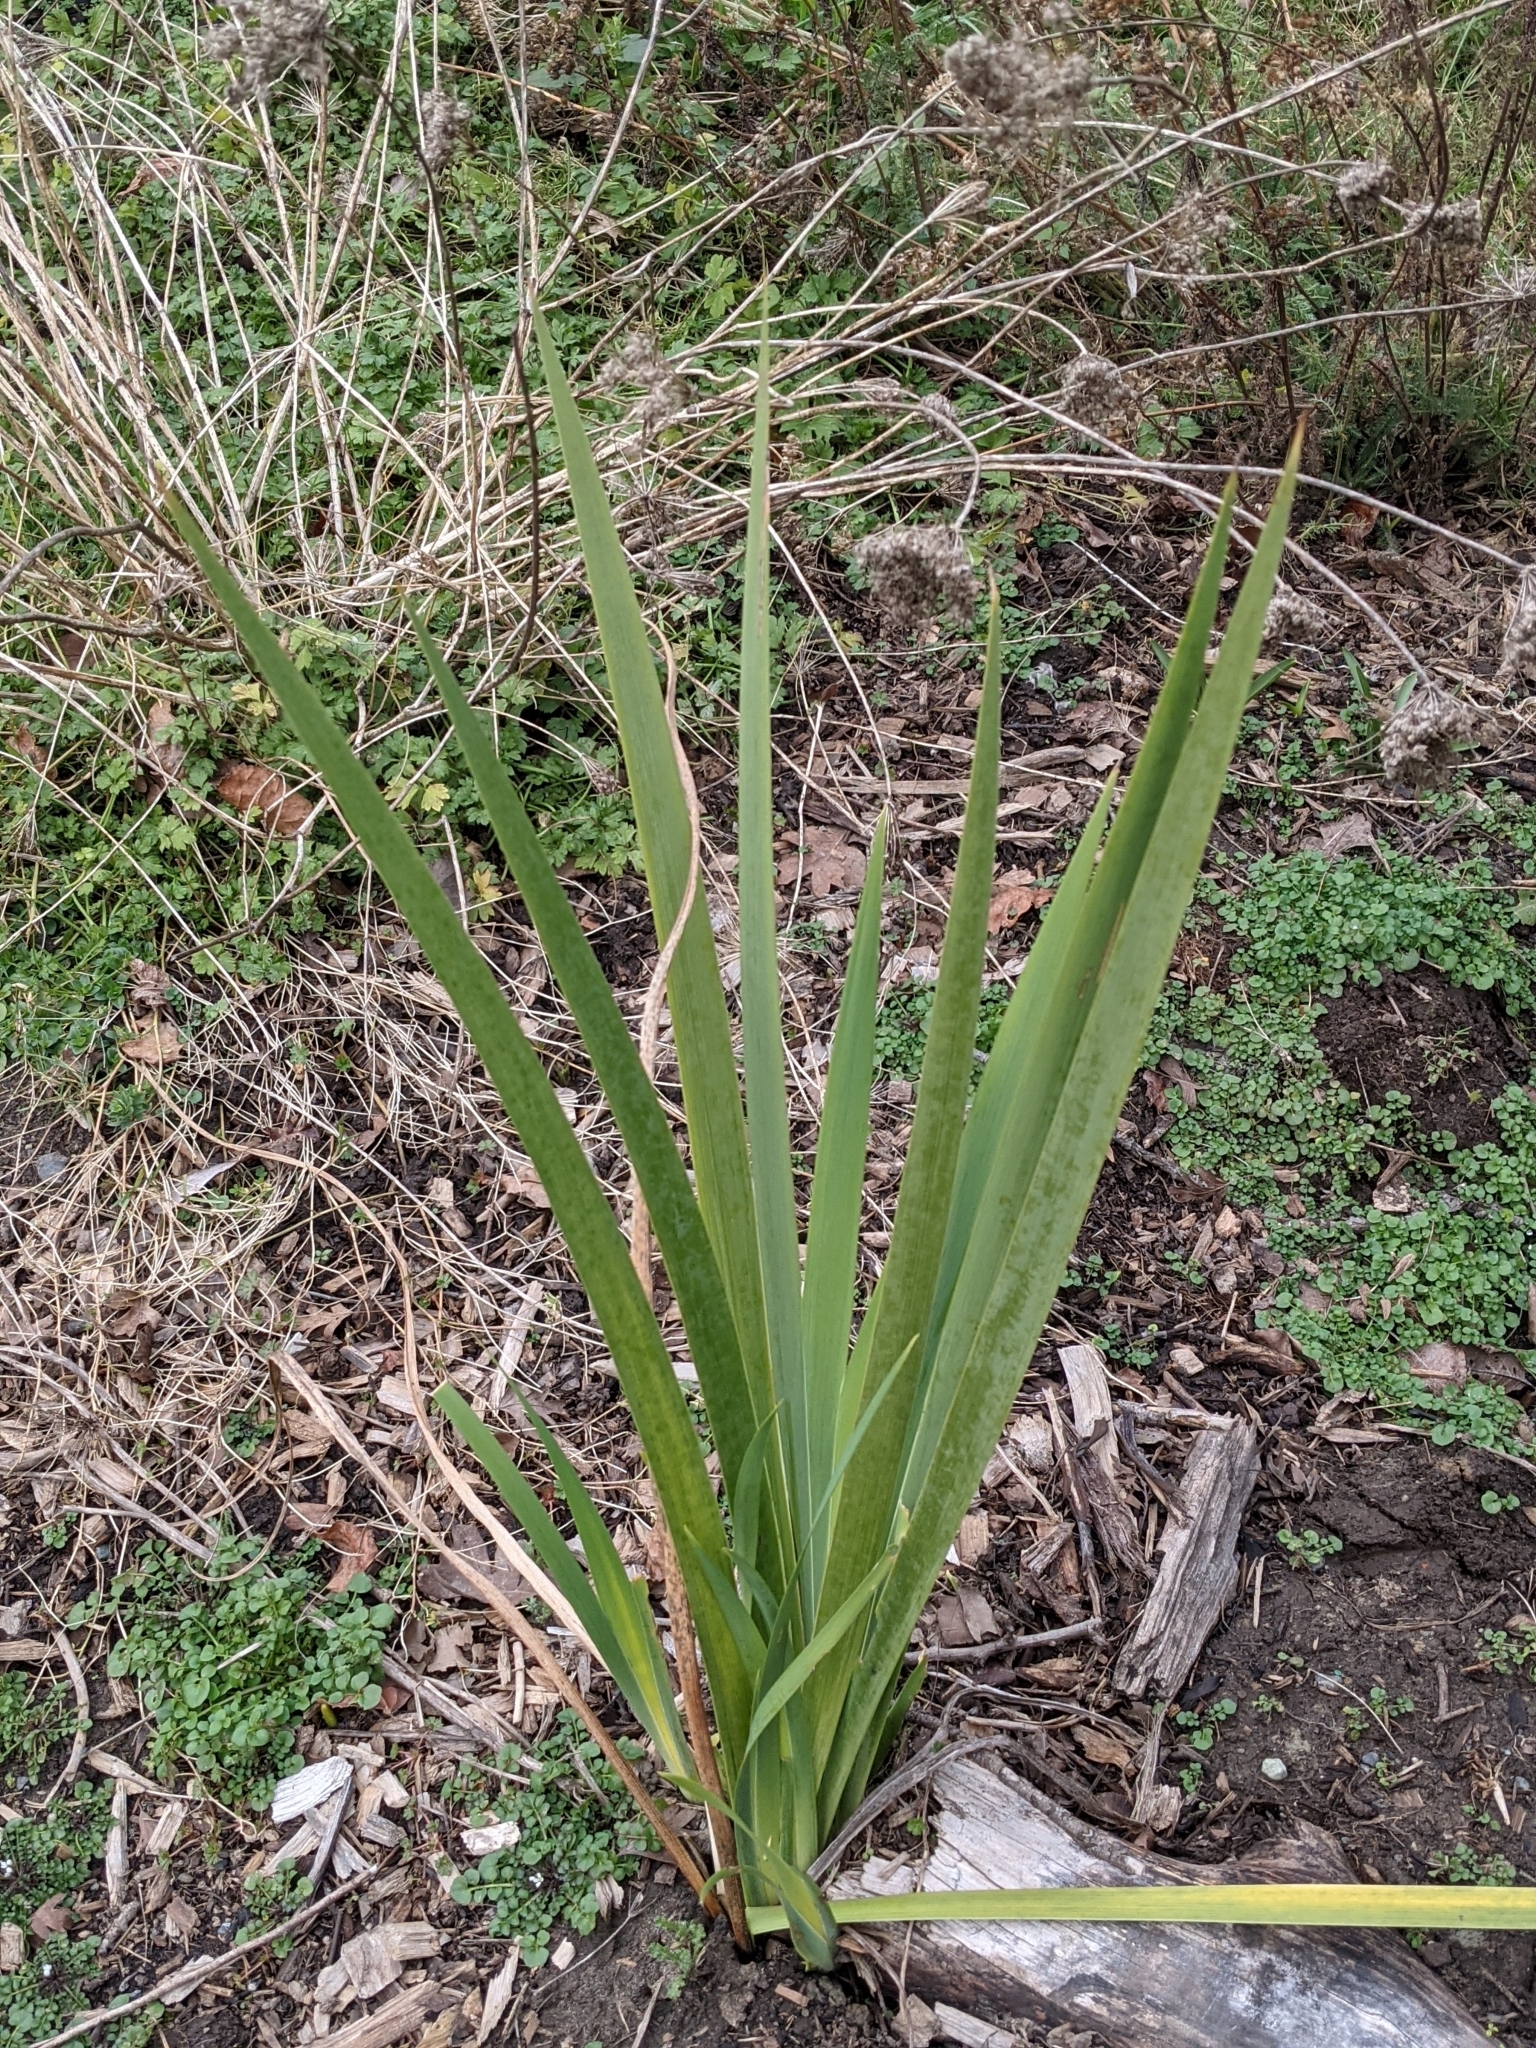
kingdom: Plantae
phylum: Tracheophyta
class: Liliopsida
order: Asparagales
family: Iridaceae
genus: Iris
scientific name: Iris pseudacorus
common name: Yellow flag
